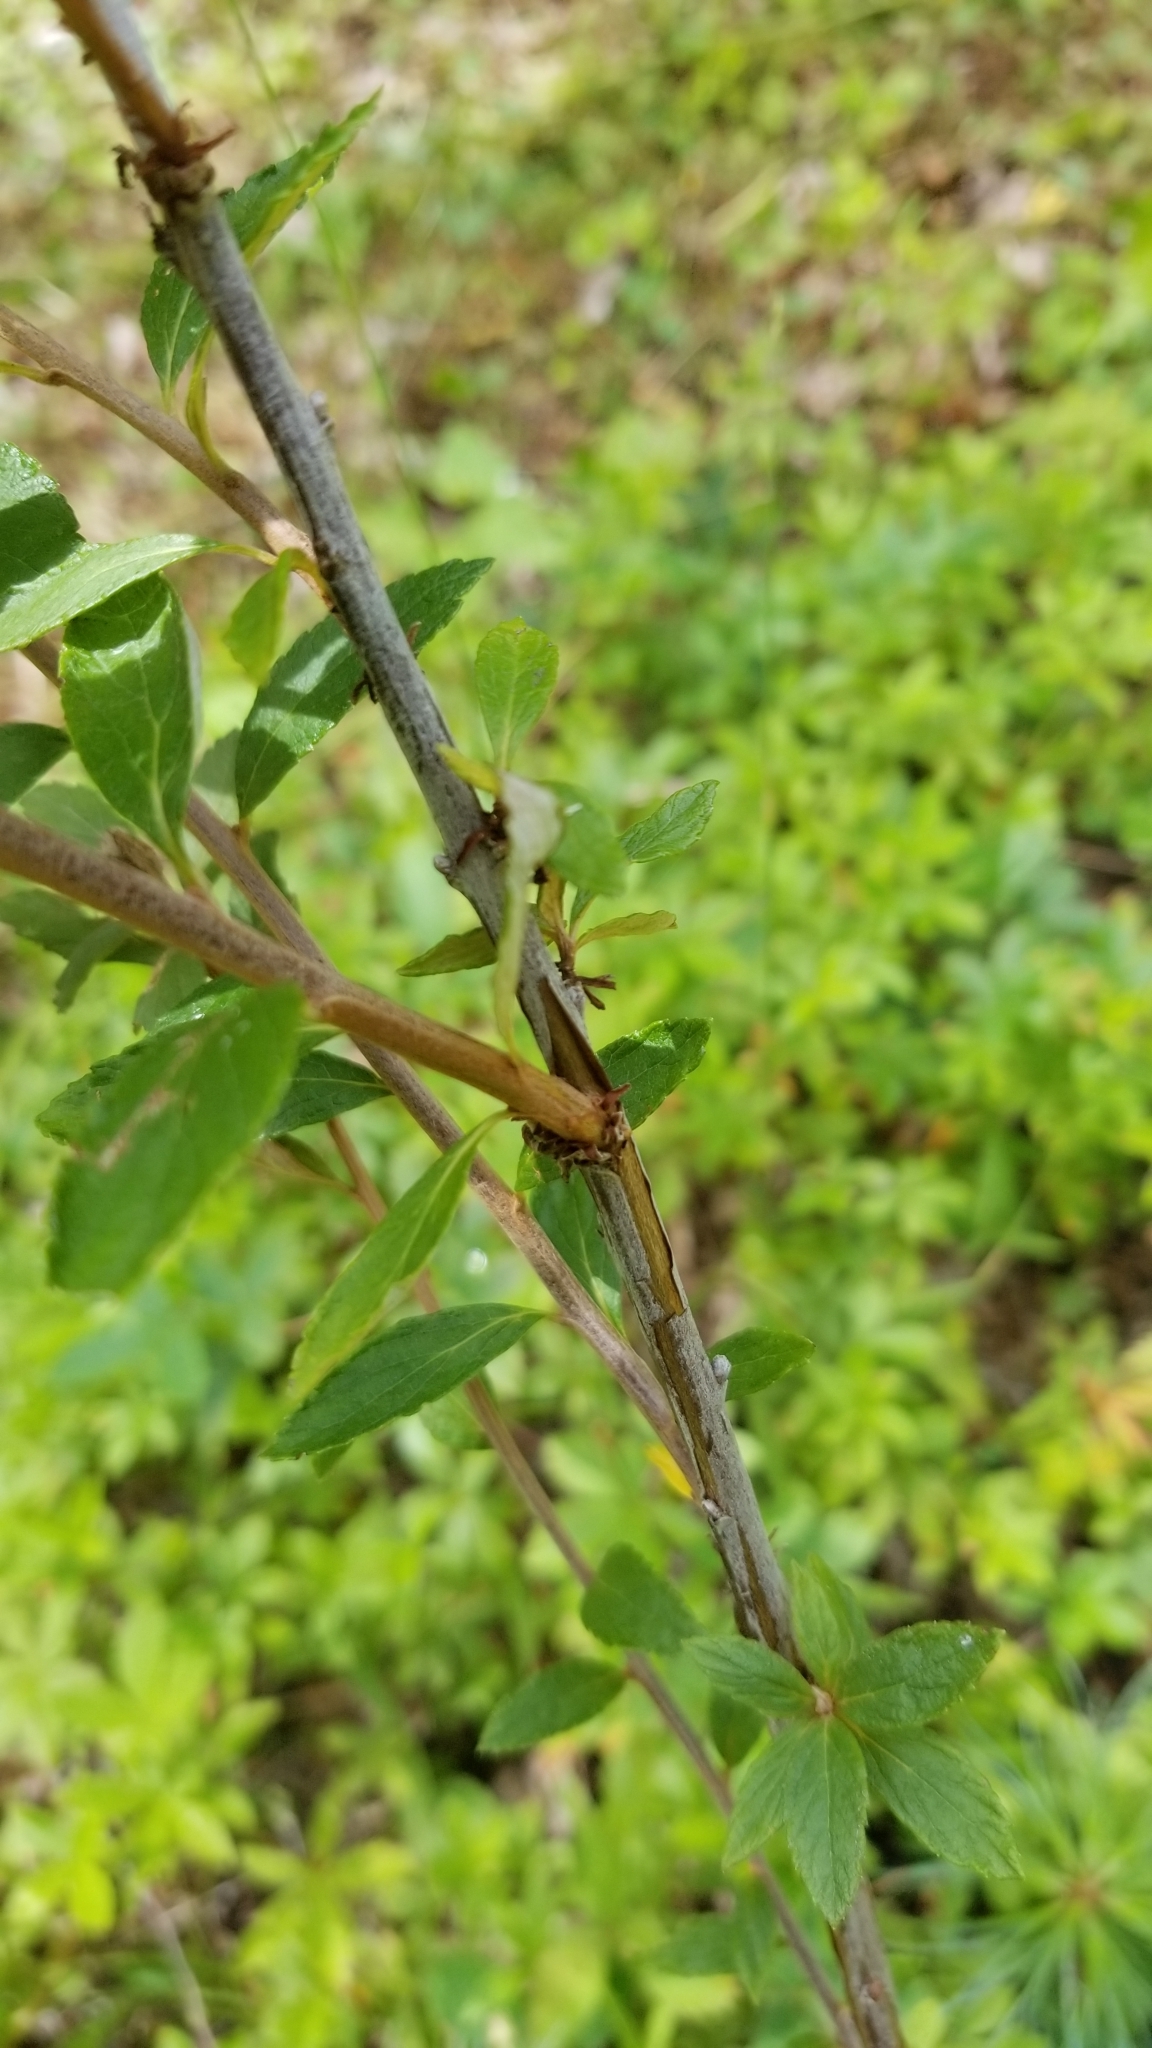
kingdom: Plantae
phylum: Tracheophyta
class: Magnoliopsida
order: Rosales
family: Rosaceae
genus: Spiraea
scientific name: Spiraea tomentosa
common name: Hardhack
